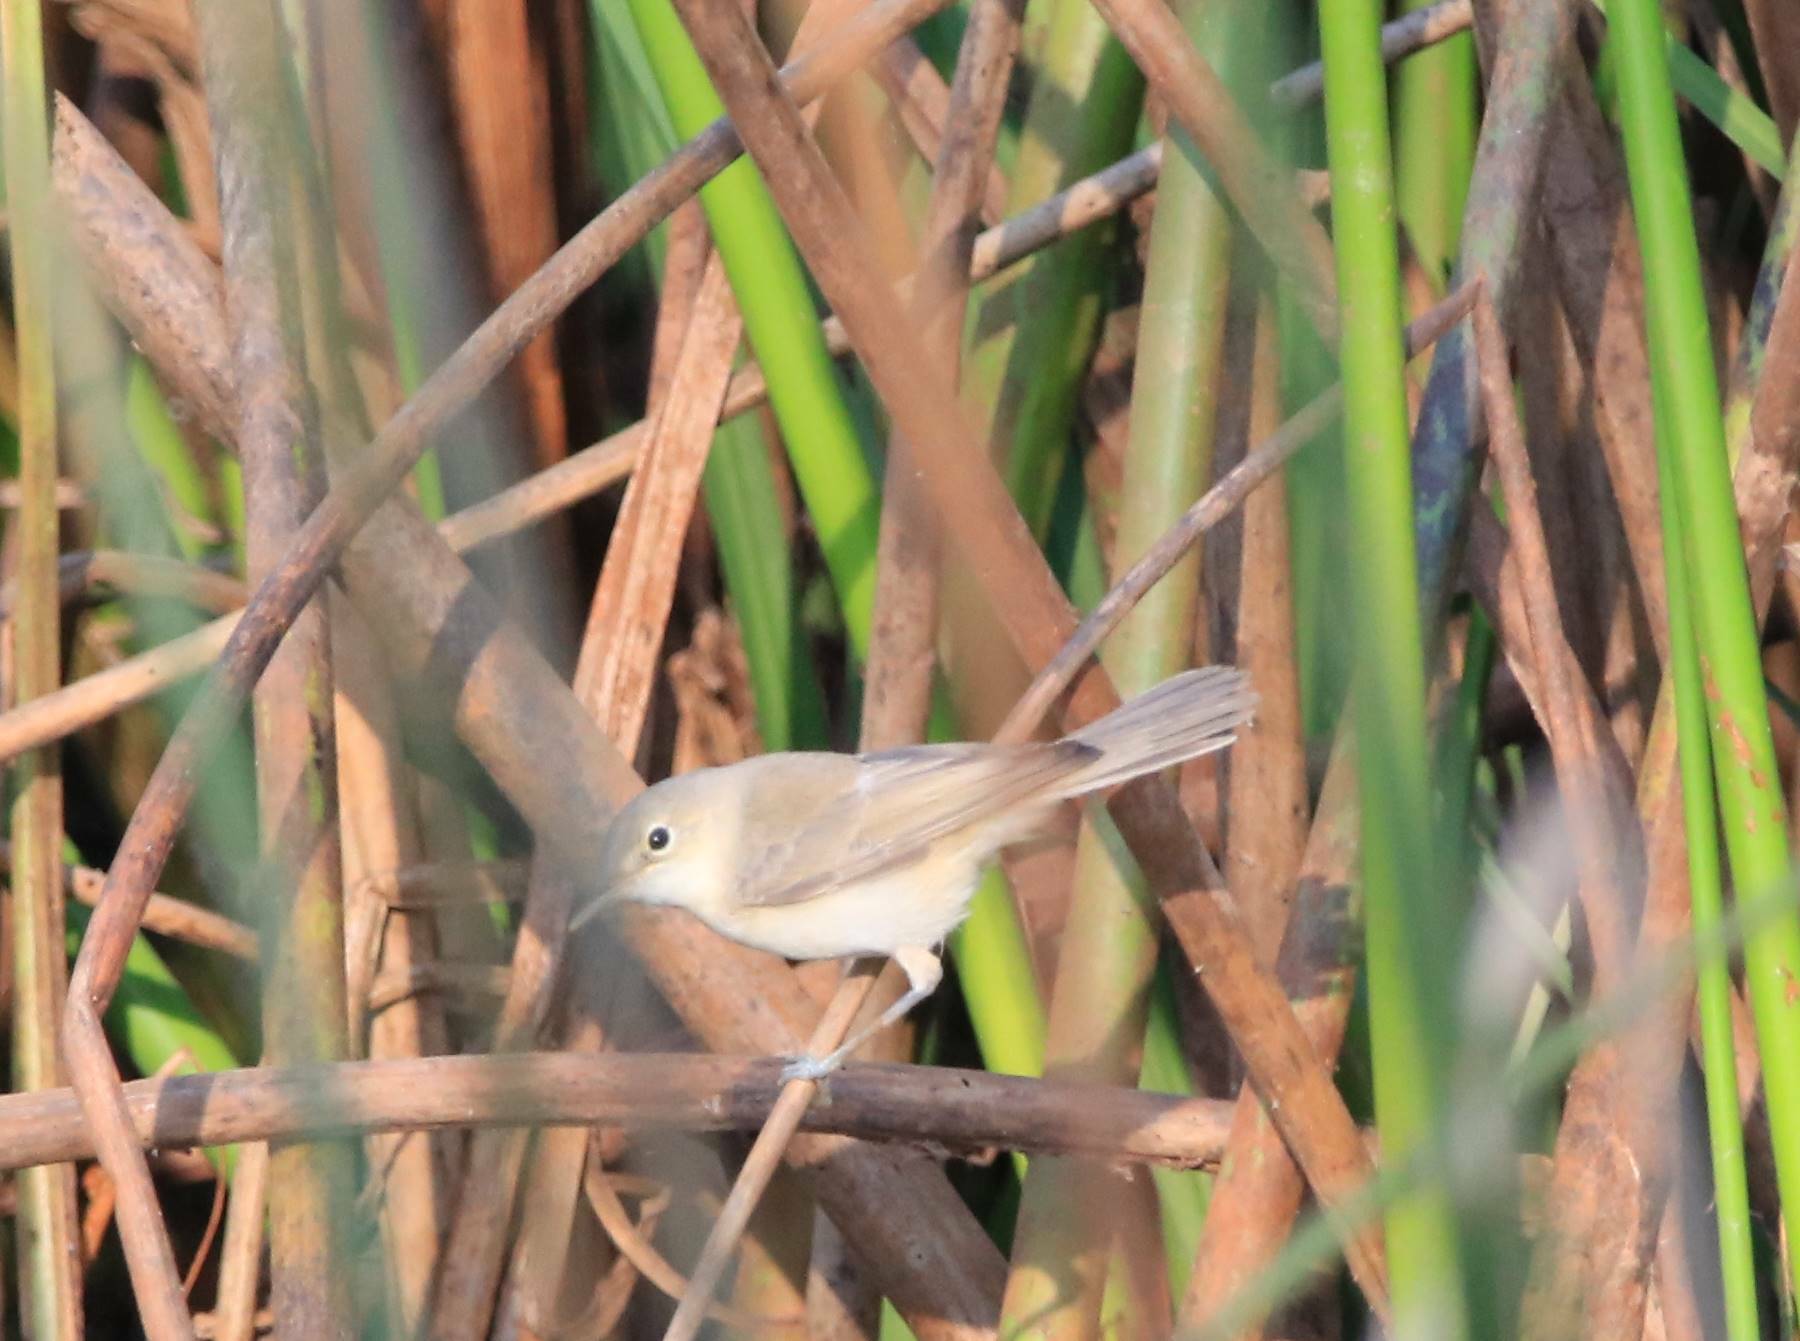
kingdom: Animalia
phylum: Chordata
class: Aves
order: Passeriformes
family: Acrocephalidae
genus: Acrocephalus
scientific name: Acrocephalus scirpaceus
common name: Eurasian reed warbler
